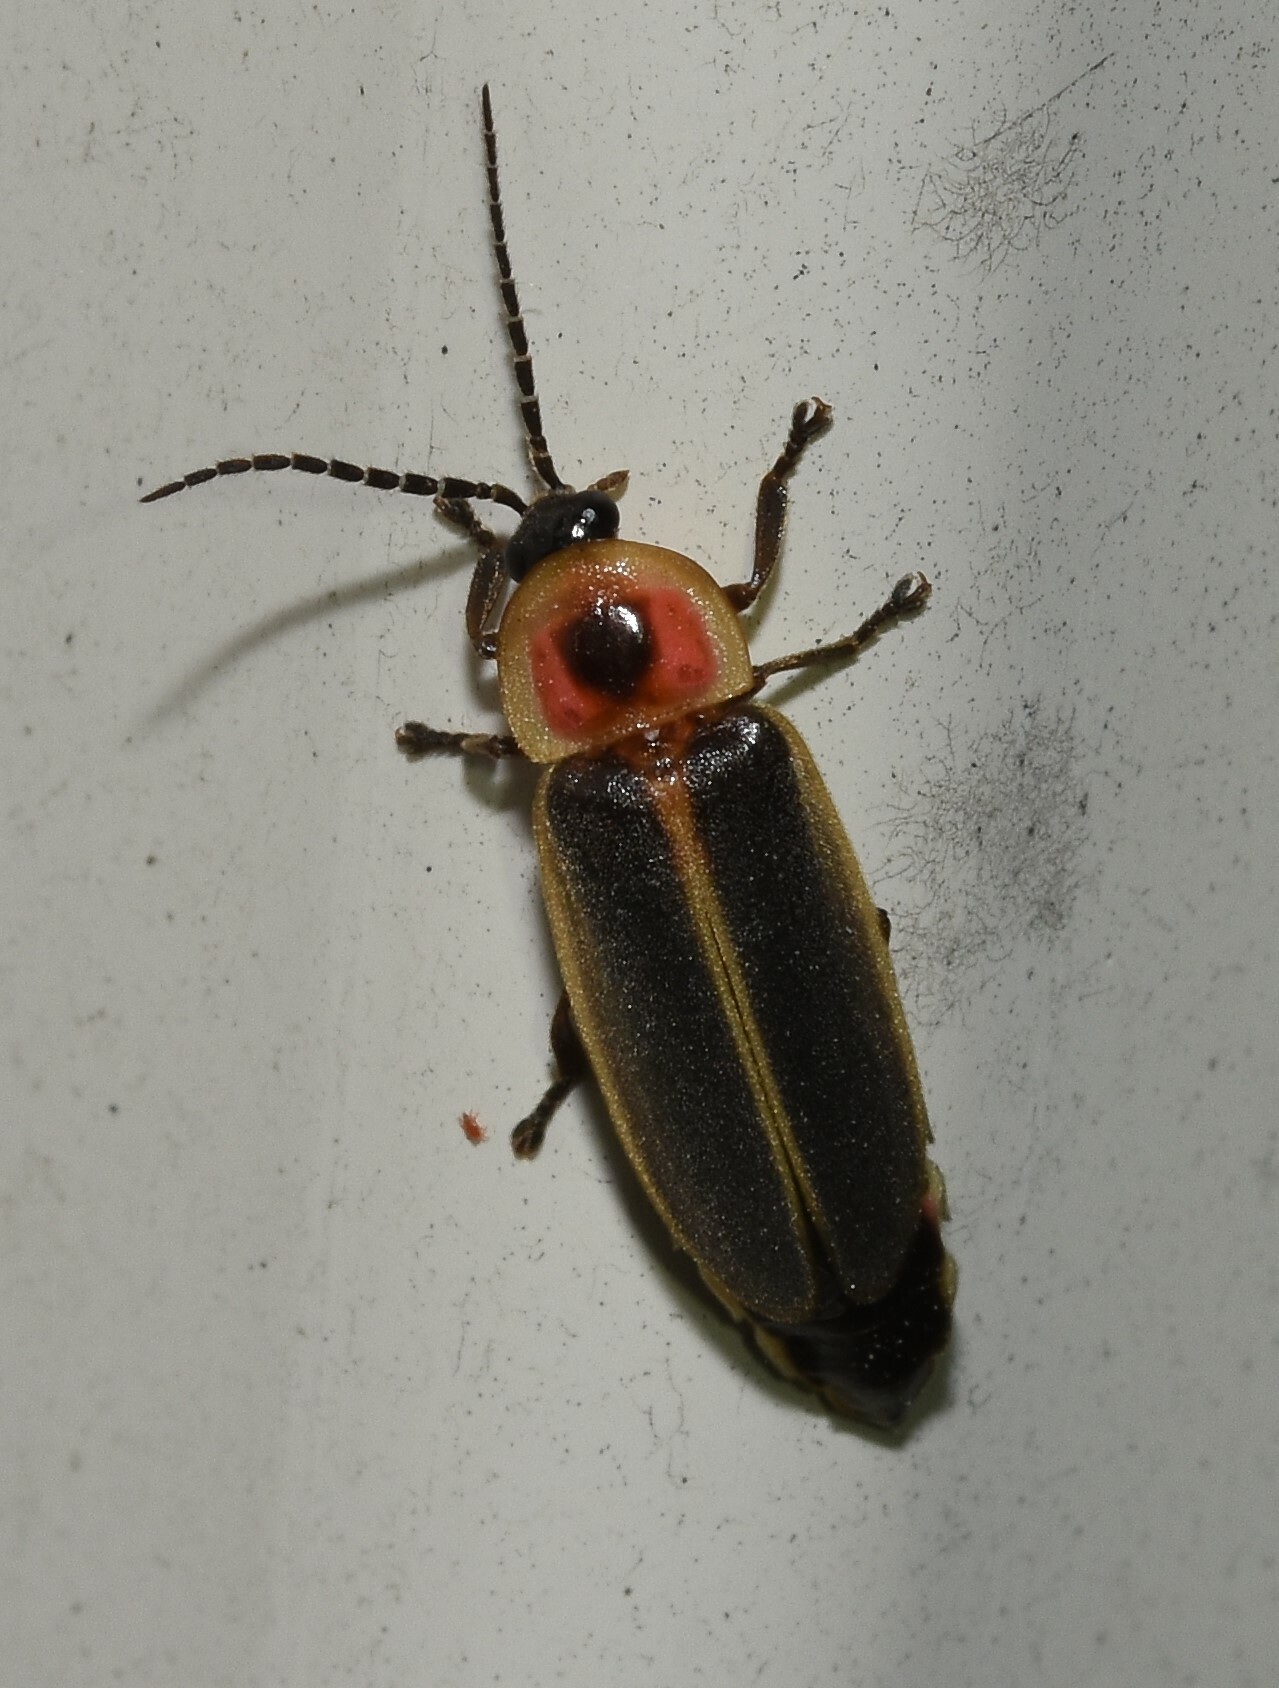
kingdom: Animalia
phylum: Arthropoda
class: Insecta
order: Coleoptera
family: Lampyridae
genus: Photinus
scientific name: Photinus pyralis
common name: Big dipper firefly
